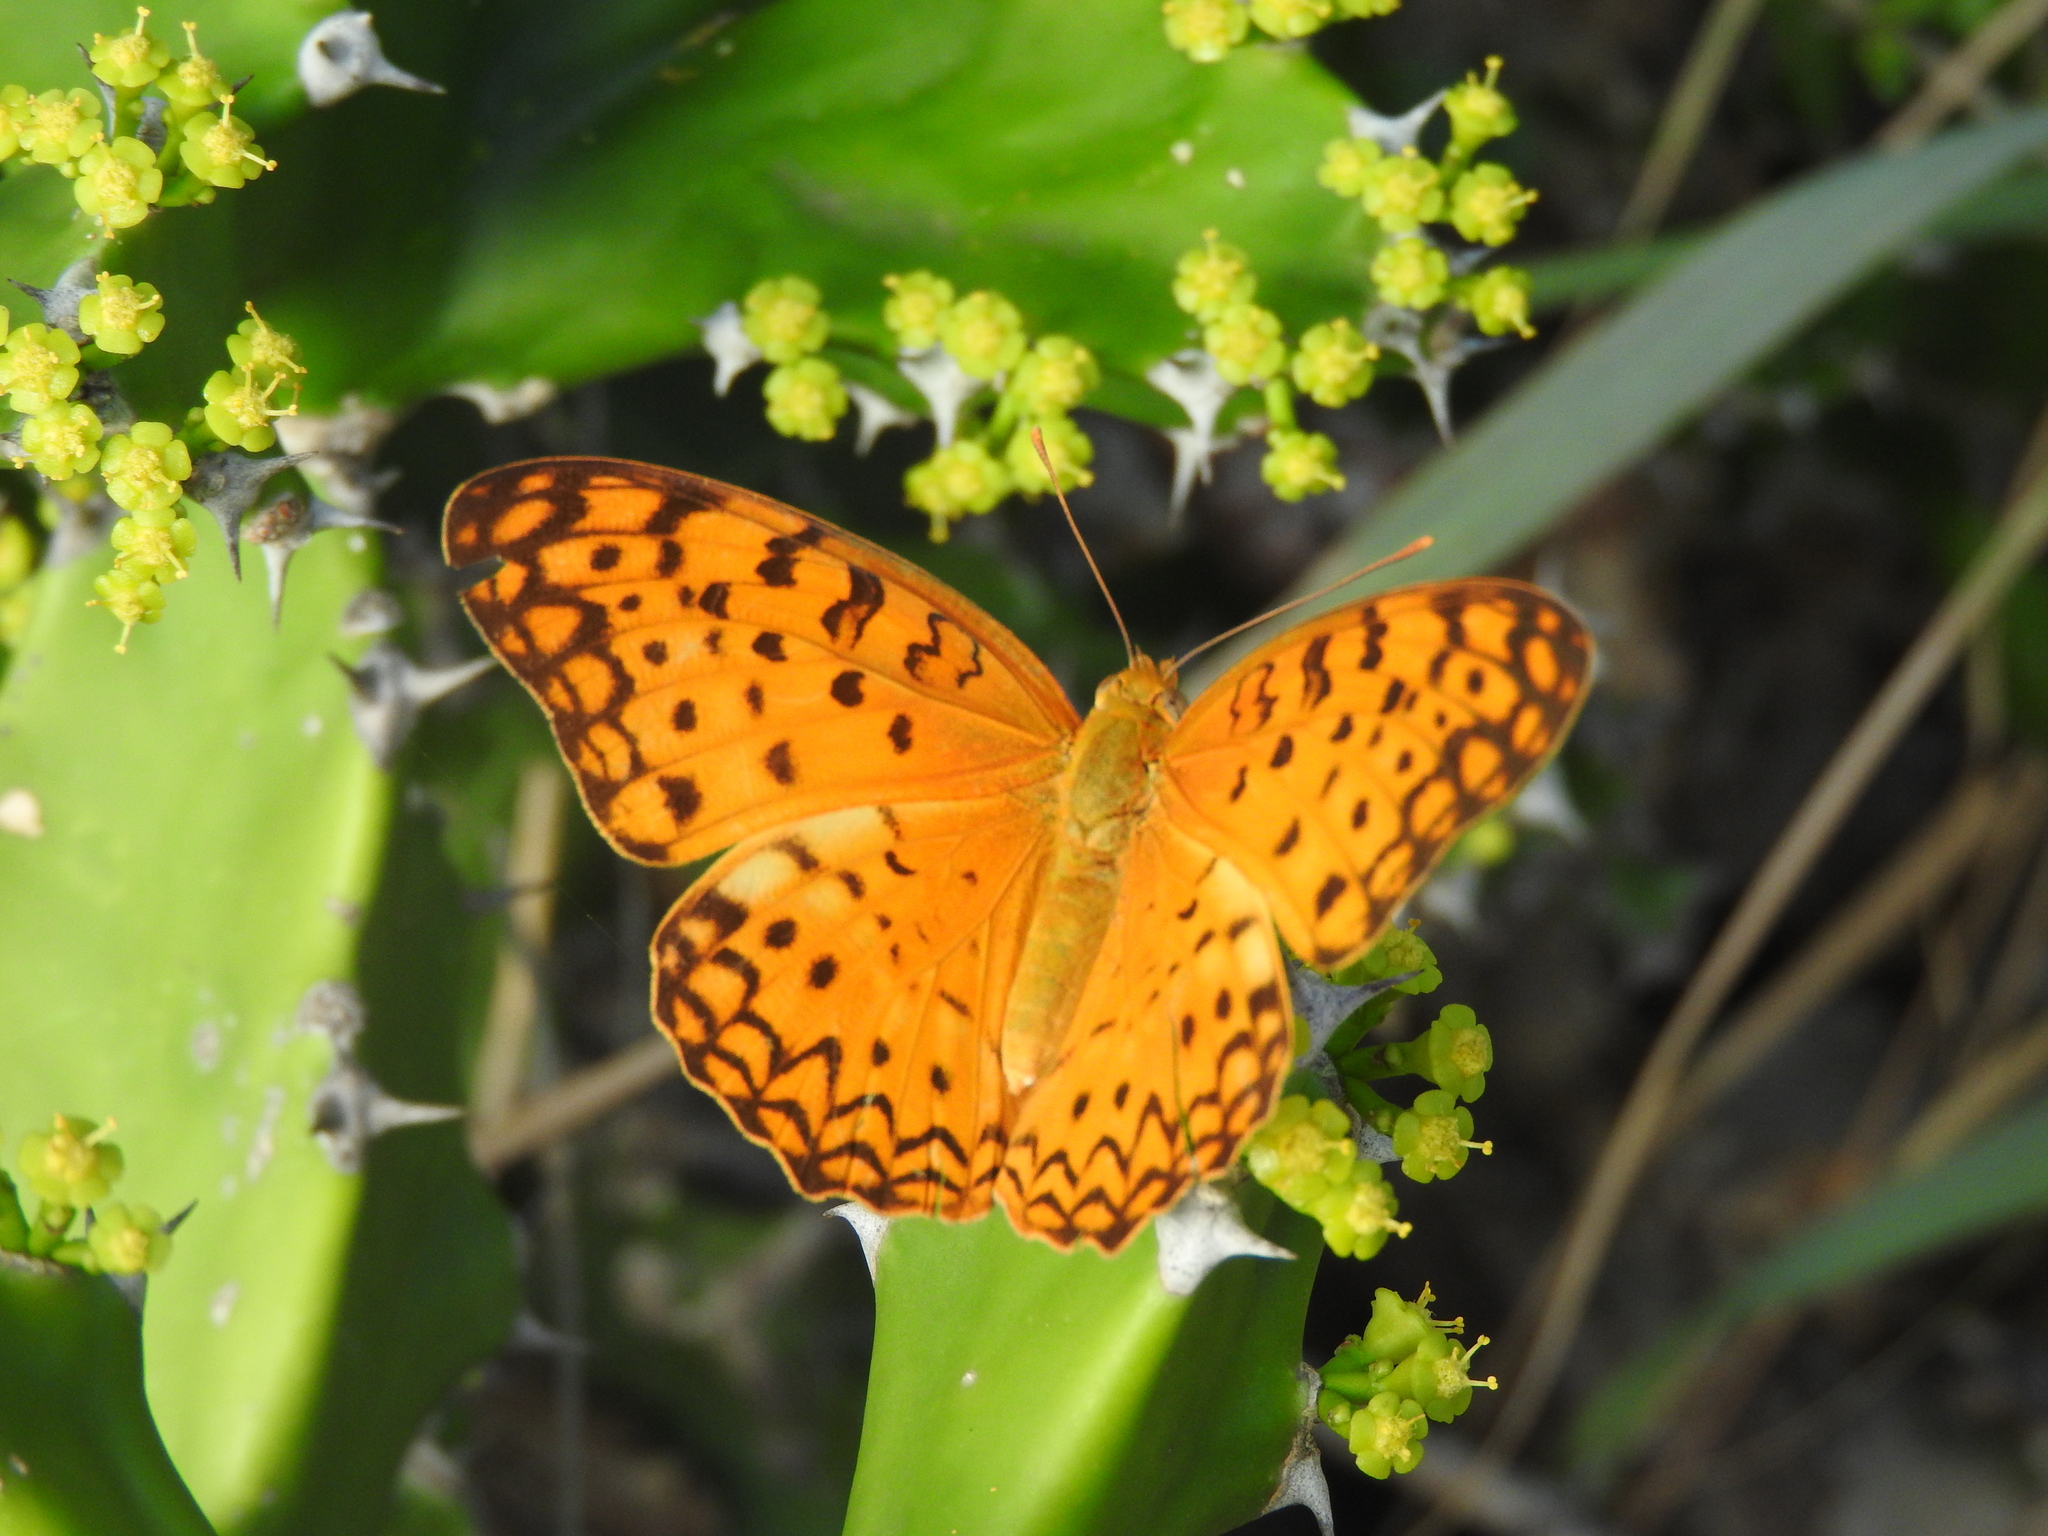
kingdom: Animalia
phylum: Arthropoda
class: Insecta
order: Lepidoptera
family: Nymphalidae
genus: Phalanta
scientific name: Phalanta phalantha
